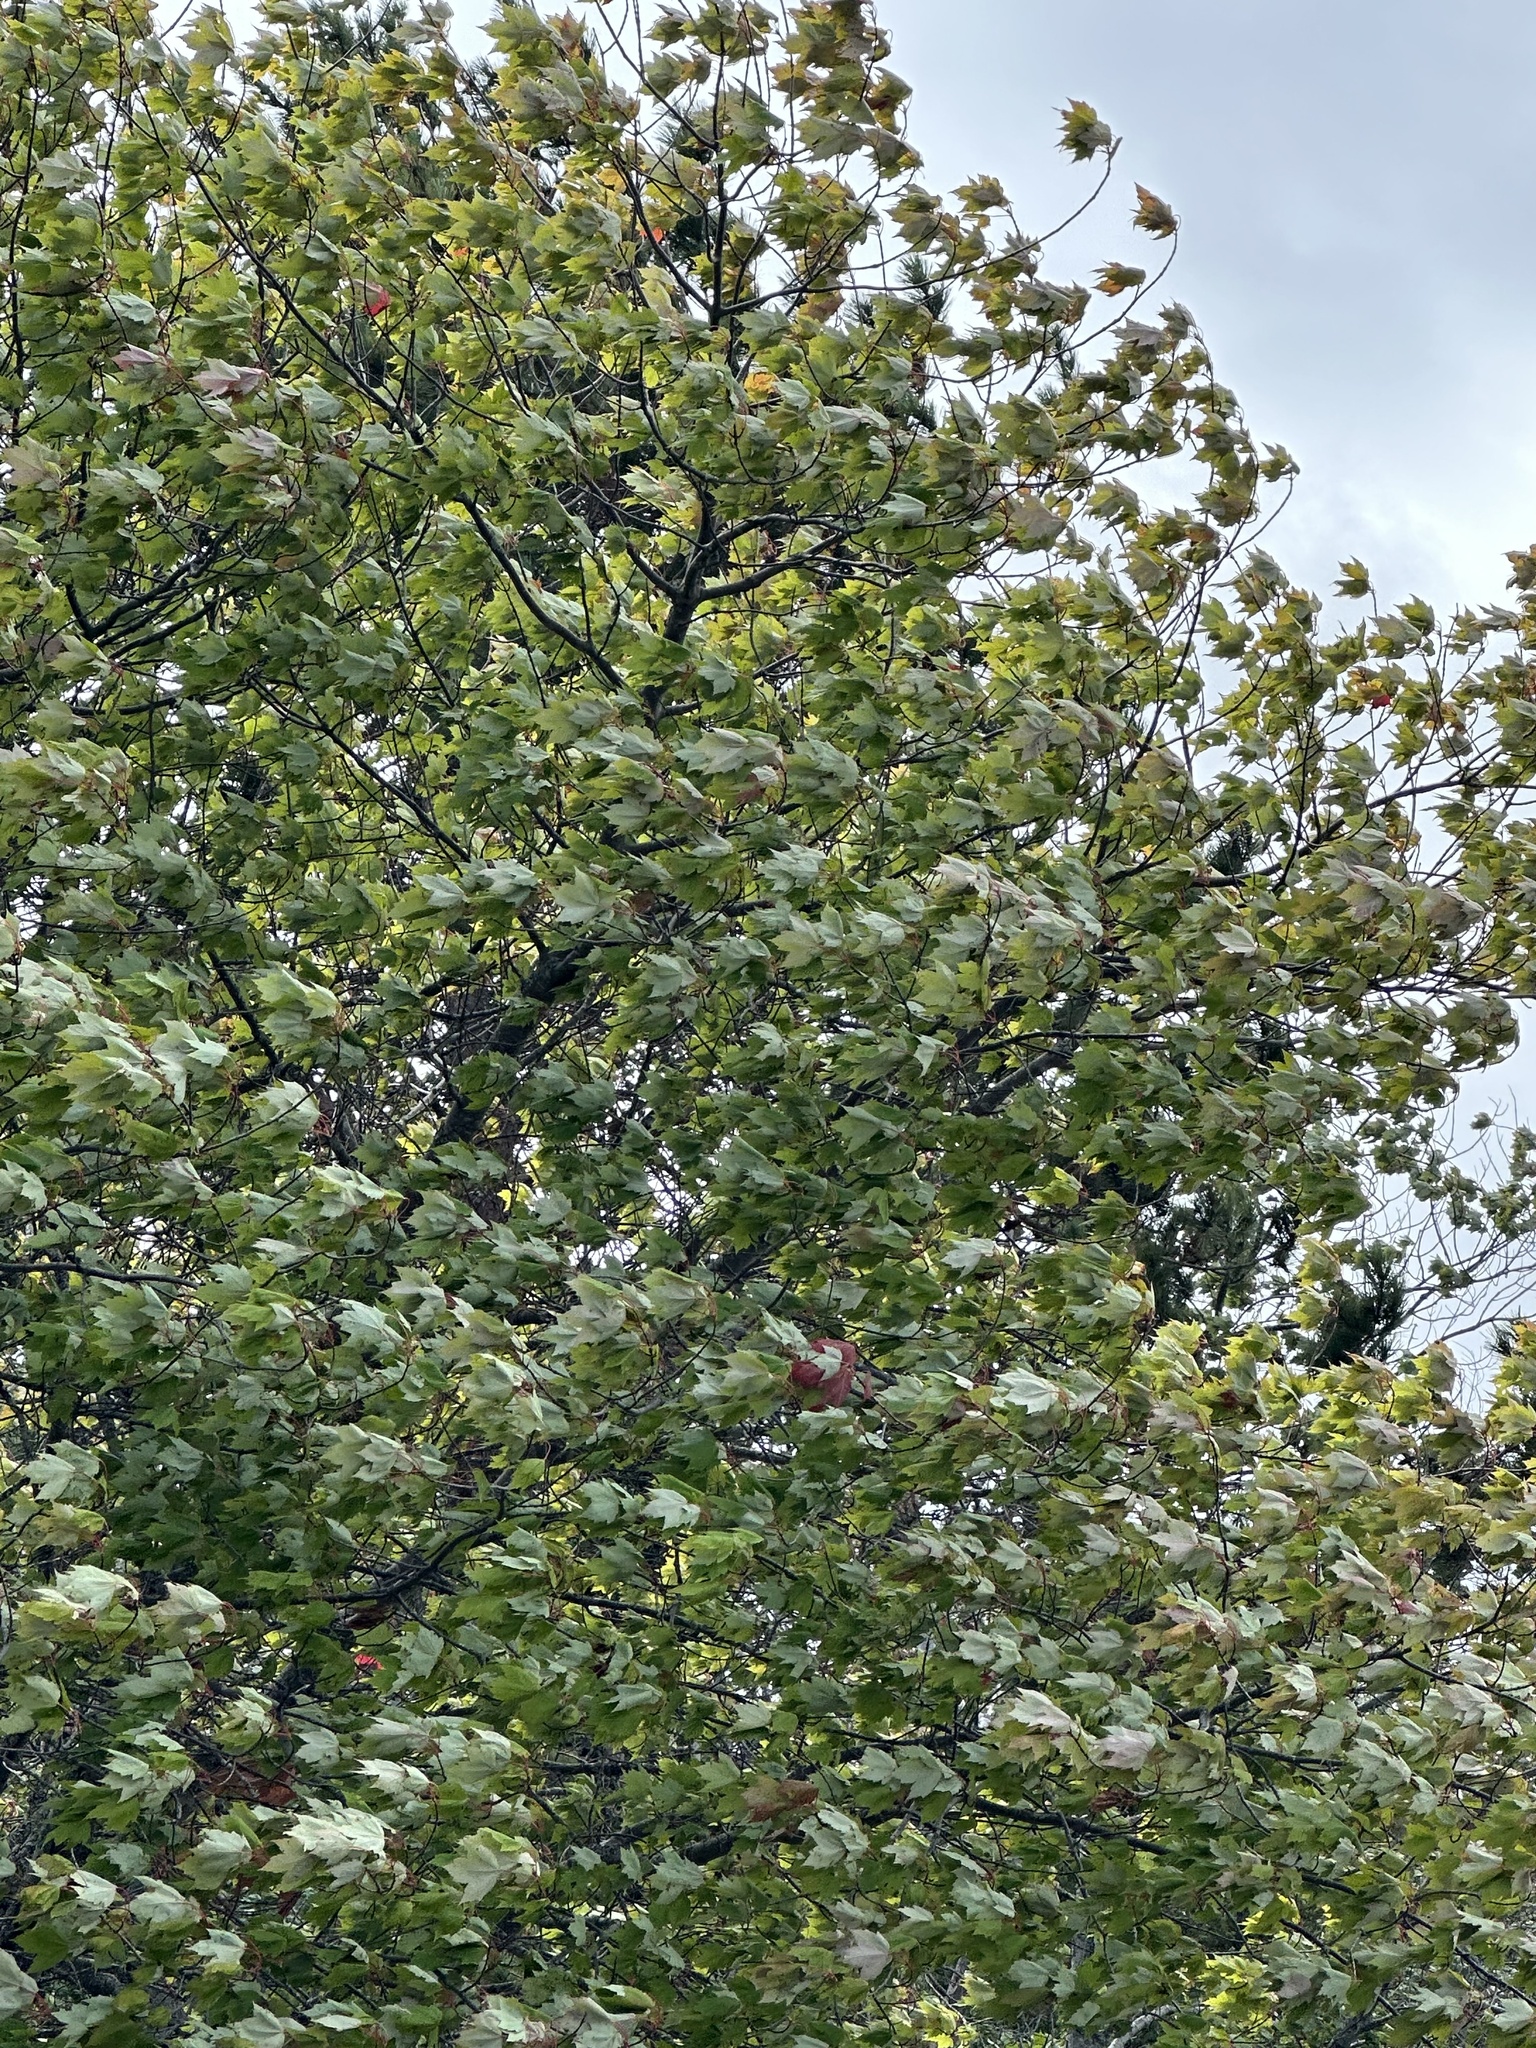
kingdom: Plantae
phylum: Tracheophyta
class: Magnoliopsida
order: Sapindales
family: Sapindaceae
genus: Acer
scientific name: Acer rubrum
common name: Red maple
